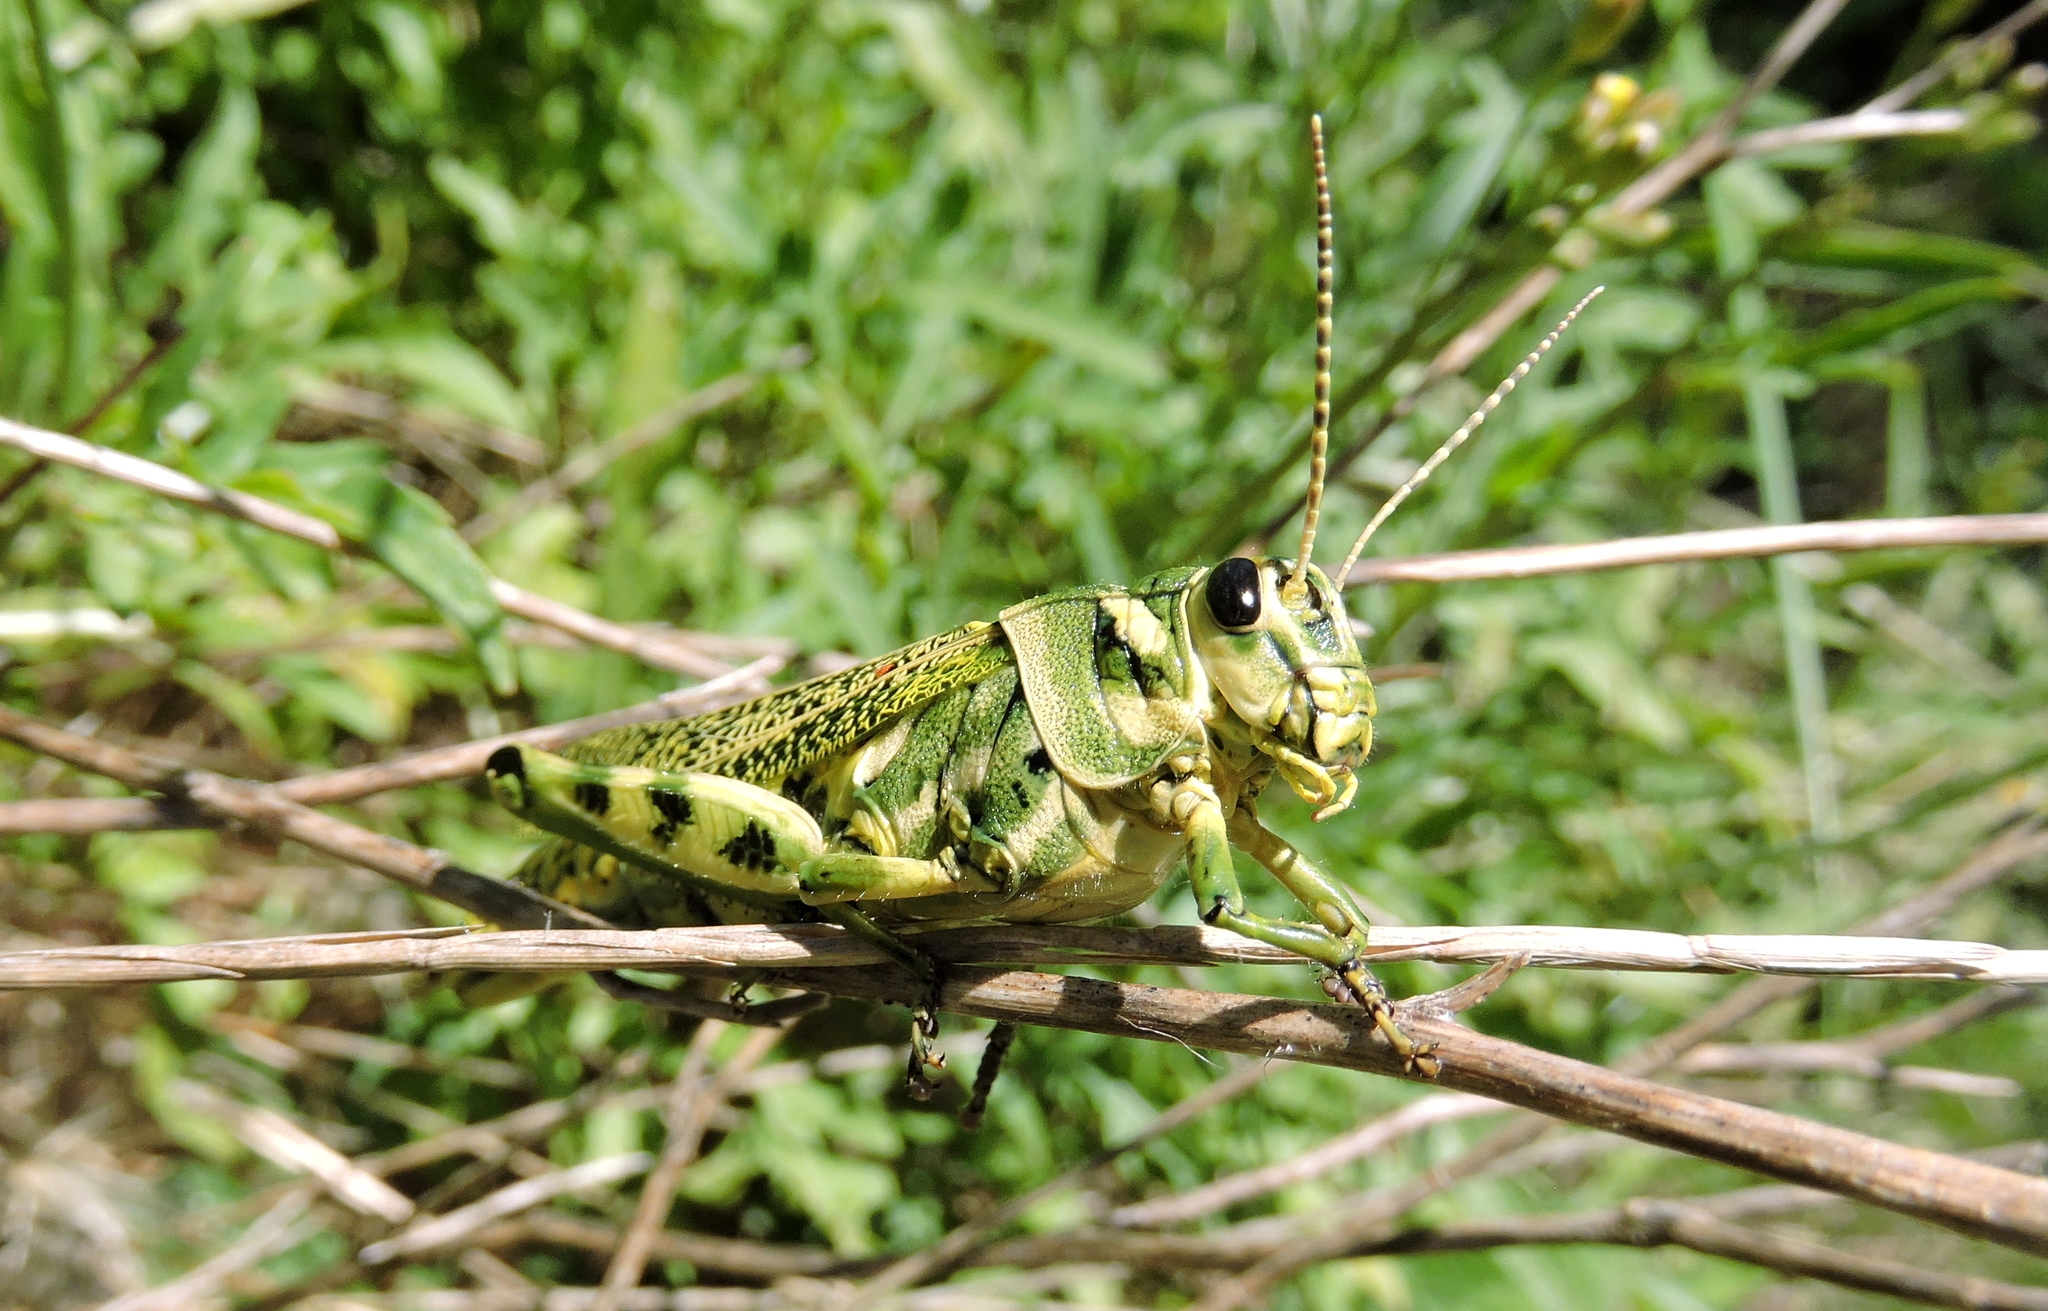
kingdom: Animalia
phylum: Arthropoda
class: Insecta
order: Orthoptera
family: Romaleidae
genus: Diponthus
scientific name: Diponthus argentinus
